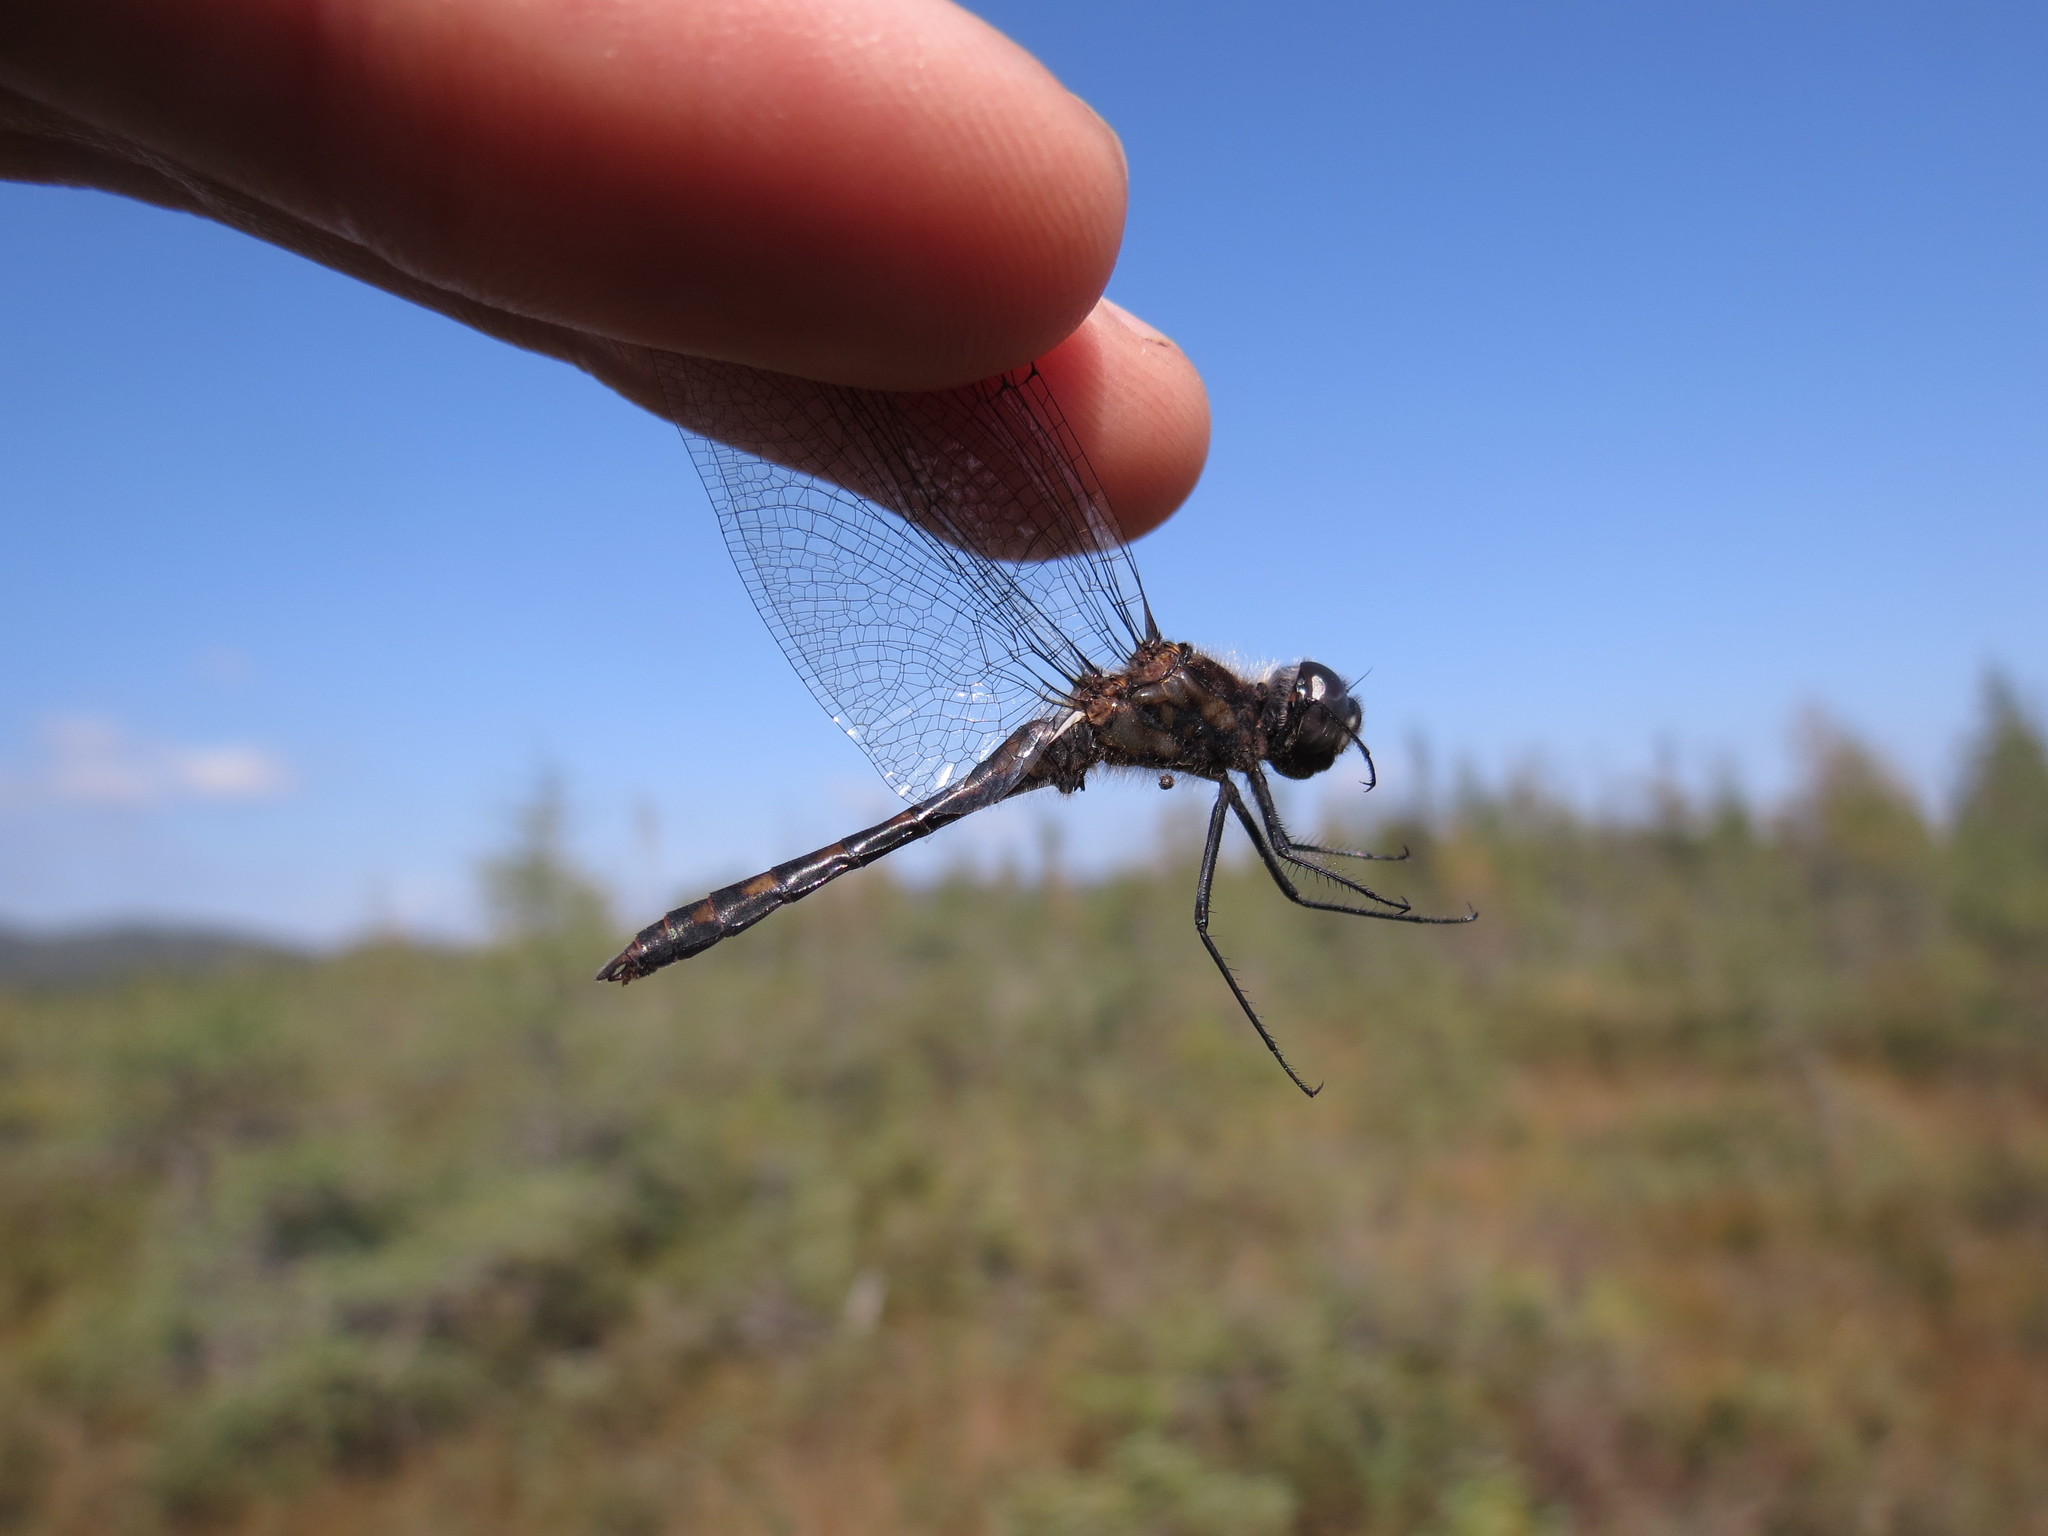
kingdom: Animalia
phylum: Arthropoda
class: Insecta
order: Odonata
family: Libellulidae
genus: Sympetrum
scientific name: Sympetrum danae
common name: Black darter
